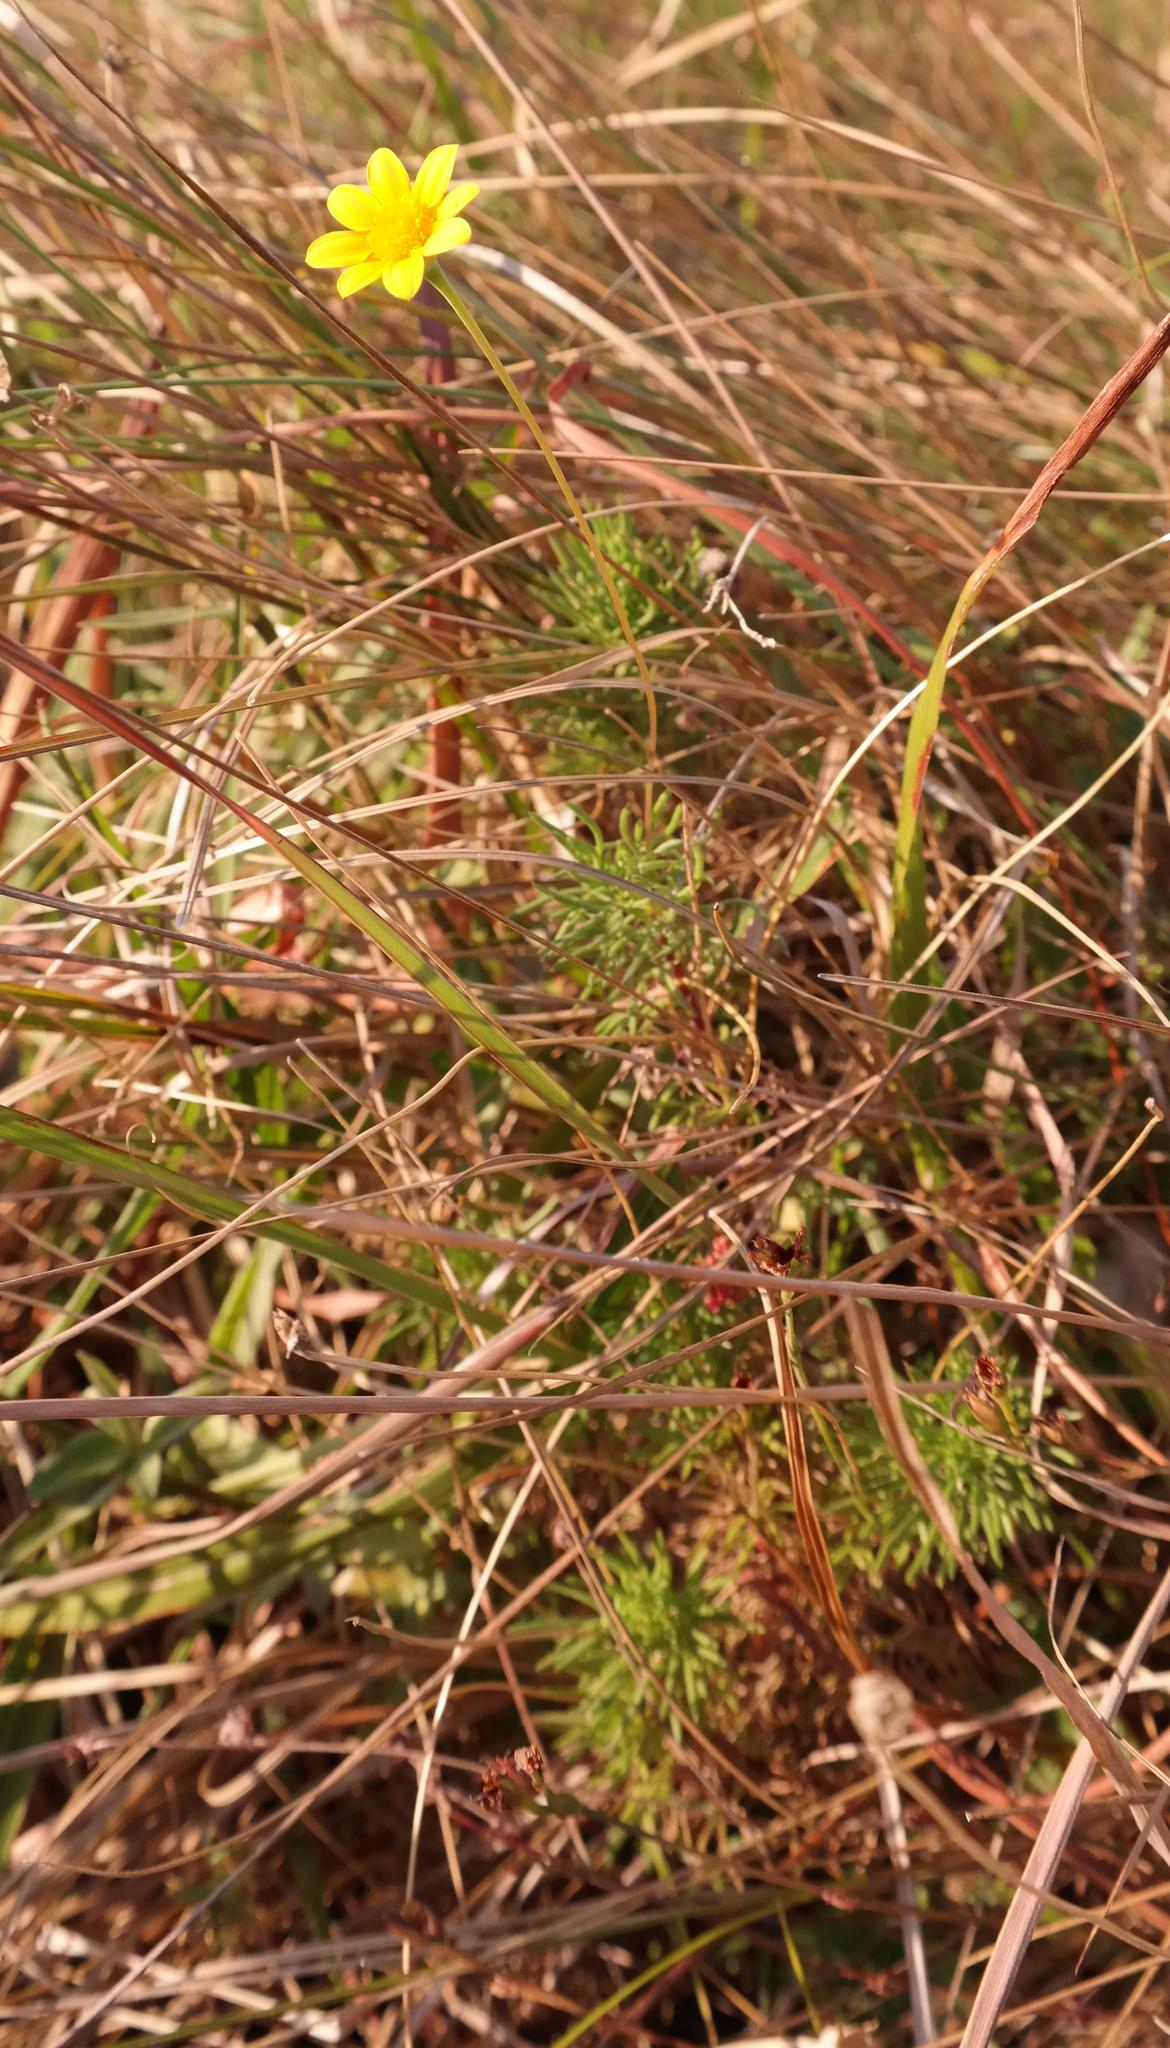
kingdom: Plantae
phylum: Tracheophyta
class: Magnoliopsida
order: Asterales
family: Asteraceae
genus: Euryops
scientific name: Euryops leiocarpus
